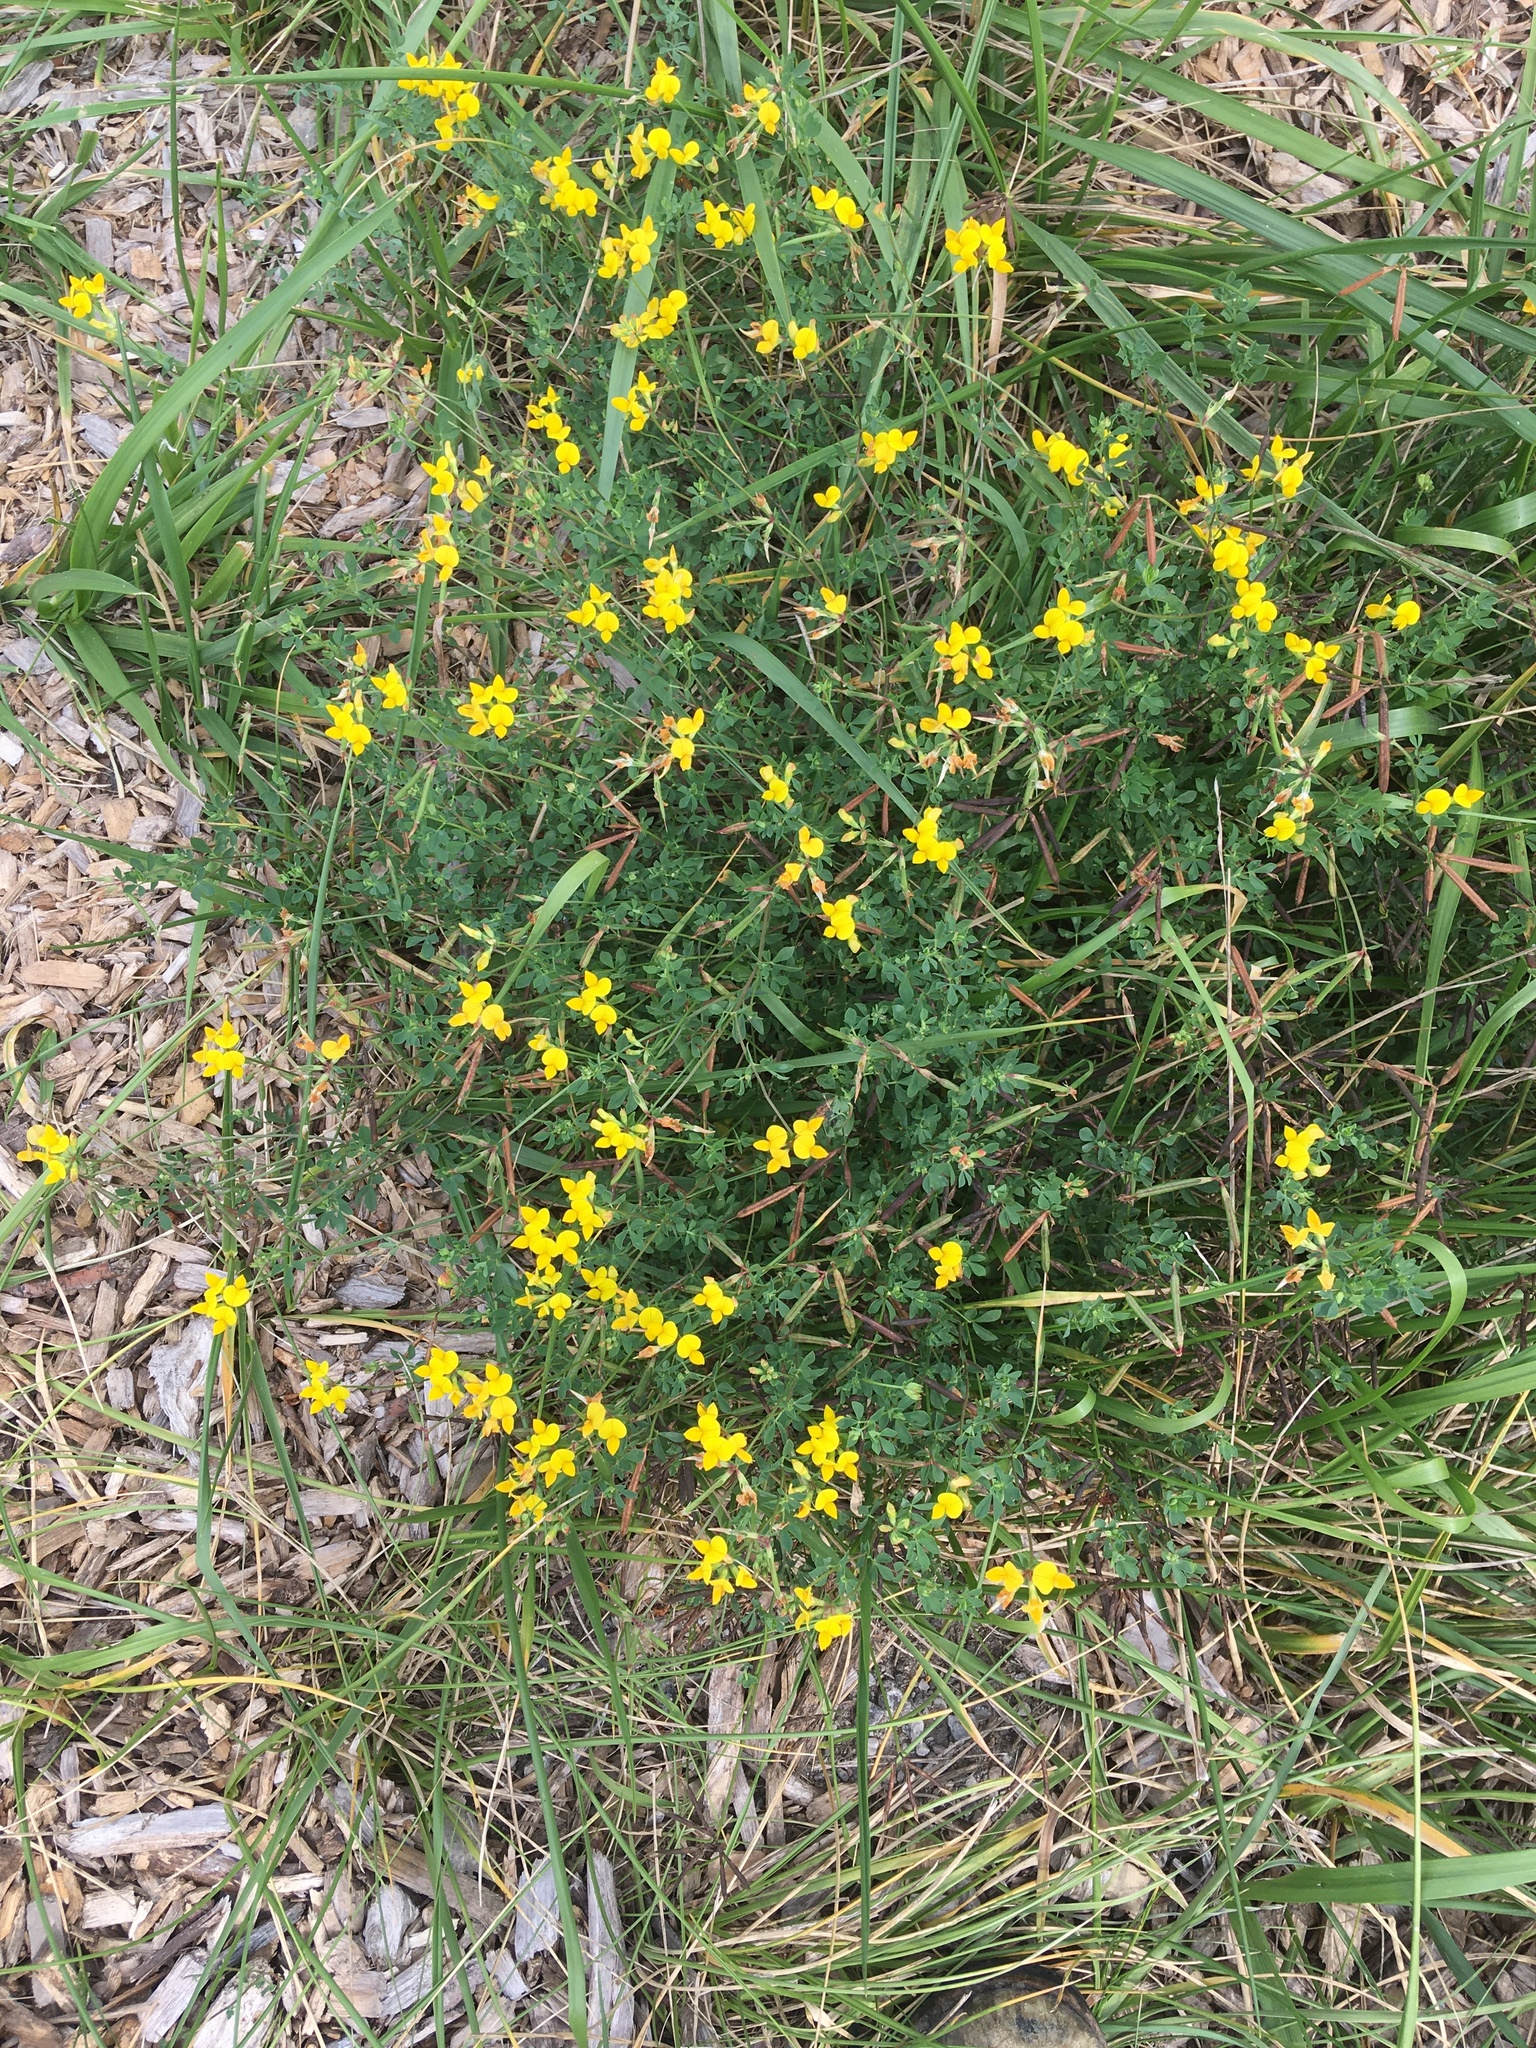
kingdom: Plantae
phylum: Tracheophyta
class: Magnoliopsida
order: Fabales
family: Fabaceae
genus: Lotus
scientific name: Lotus corniculatus
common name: Common bird's-foot-trefoil
